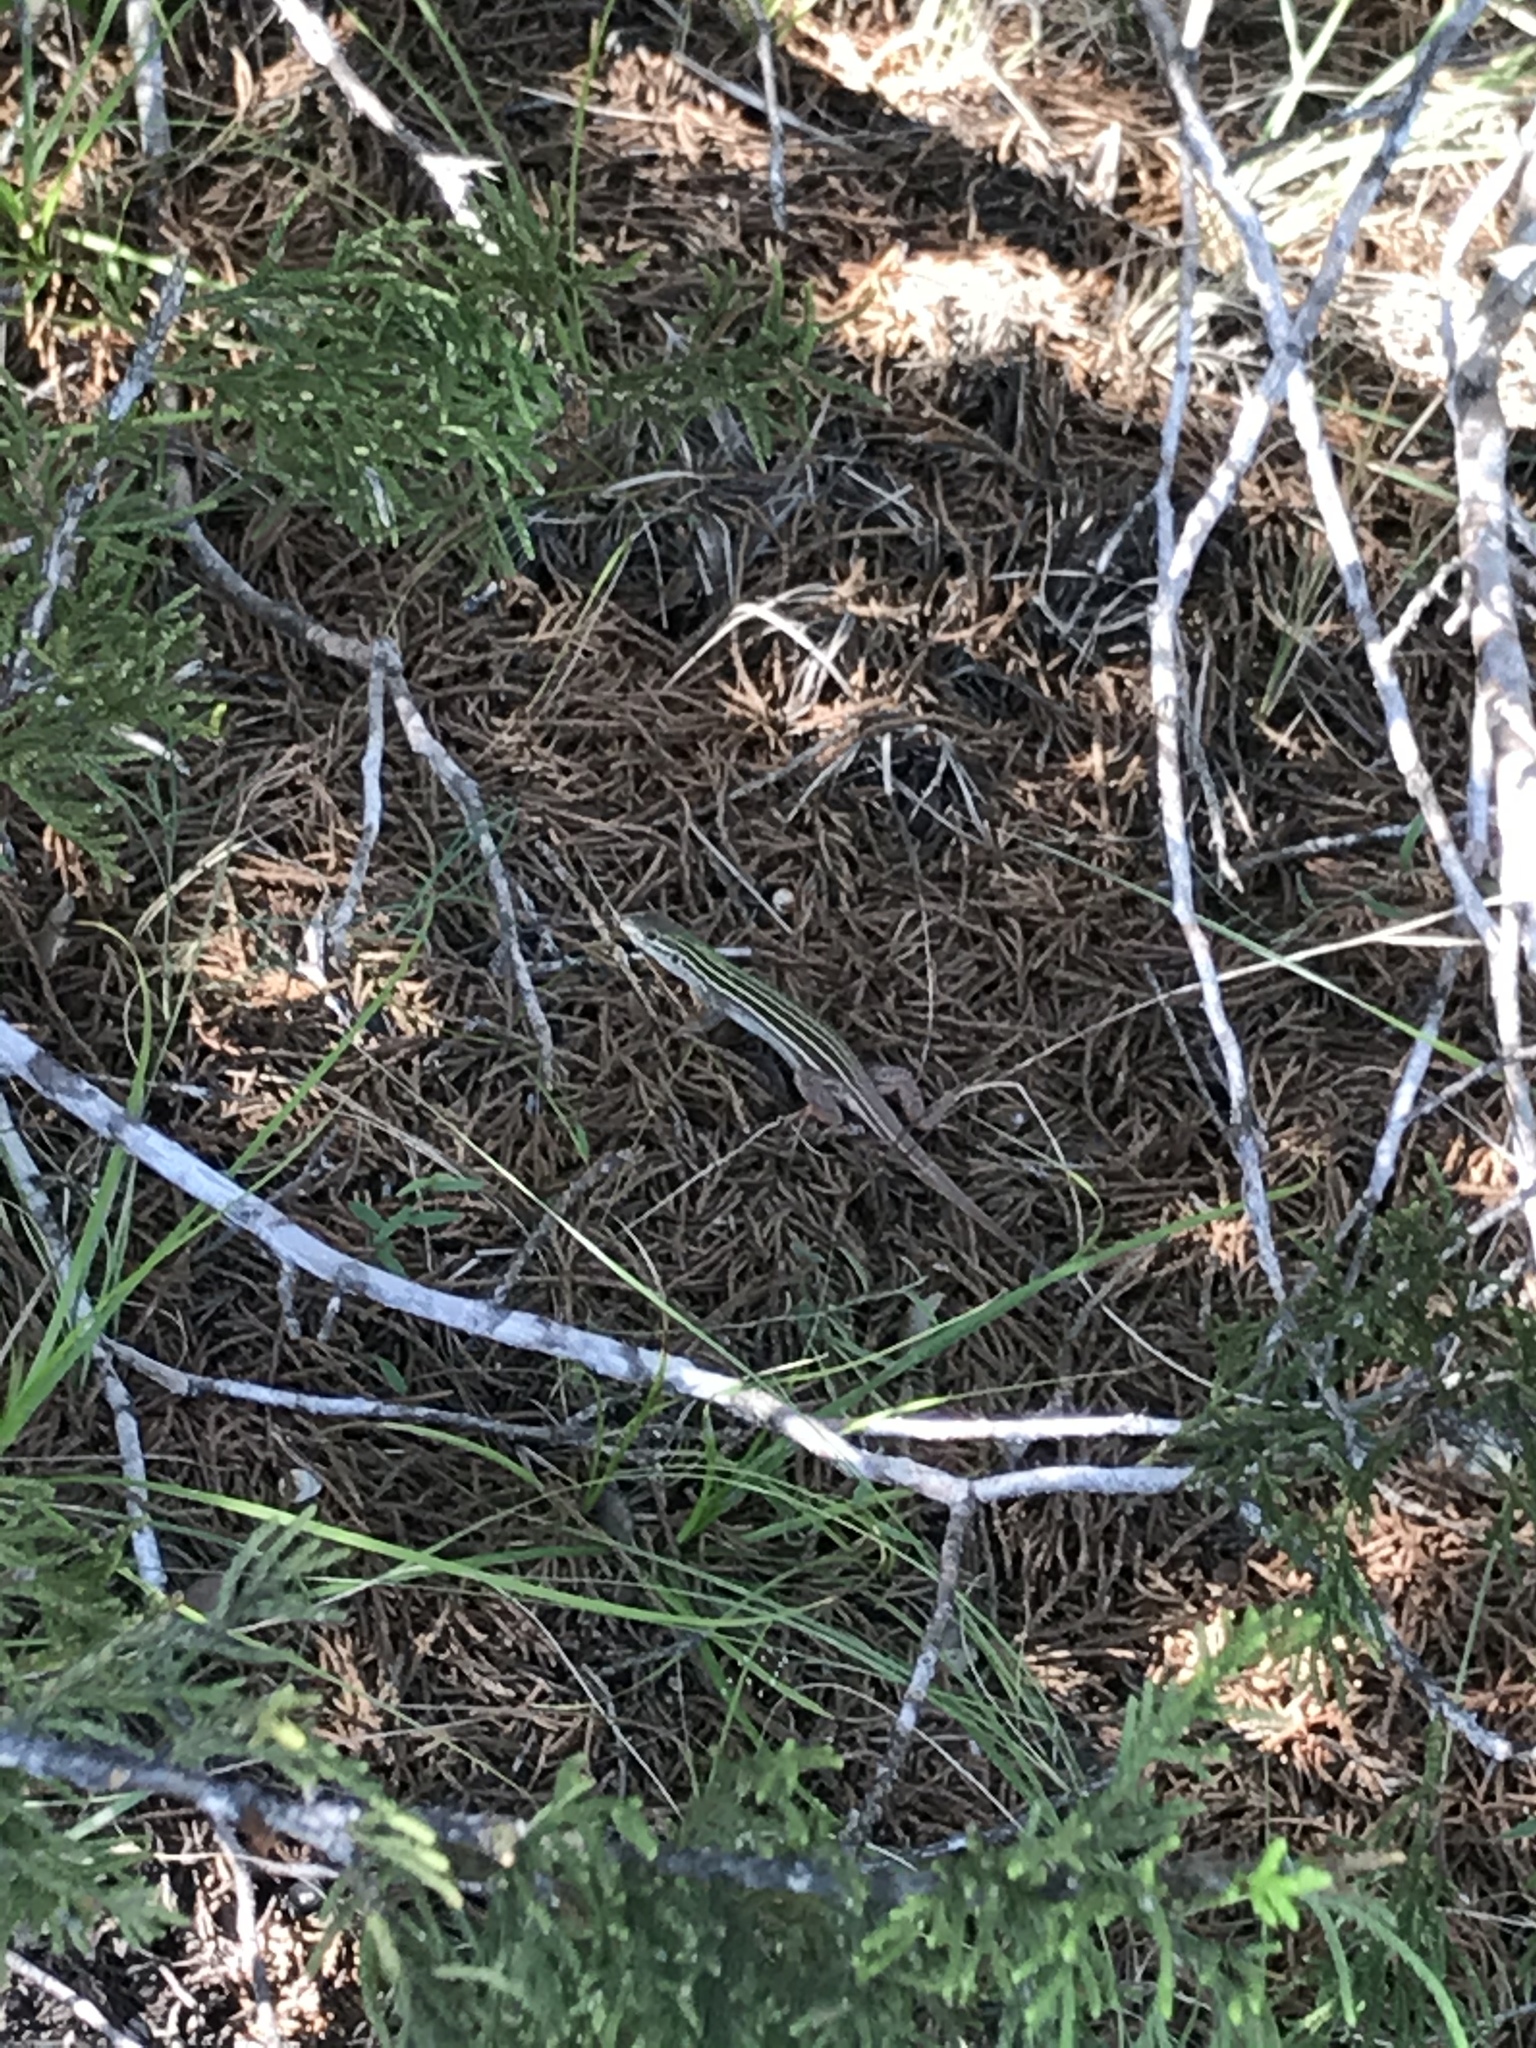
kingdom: Animalia
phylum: Chordata
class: Squamata
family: Teiidae
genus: Aspidoscelis
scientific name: Aspidoscelis gularis
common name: Eastern spotted whiptail
